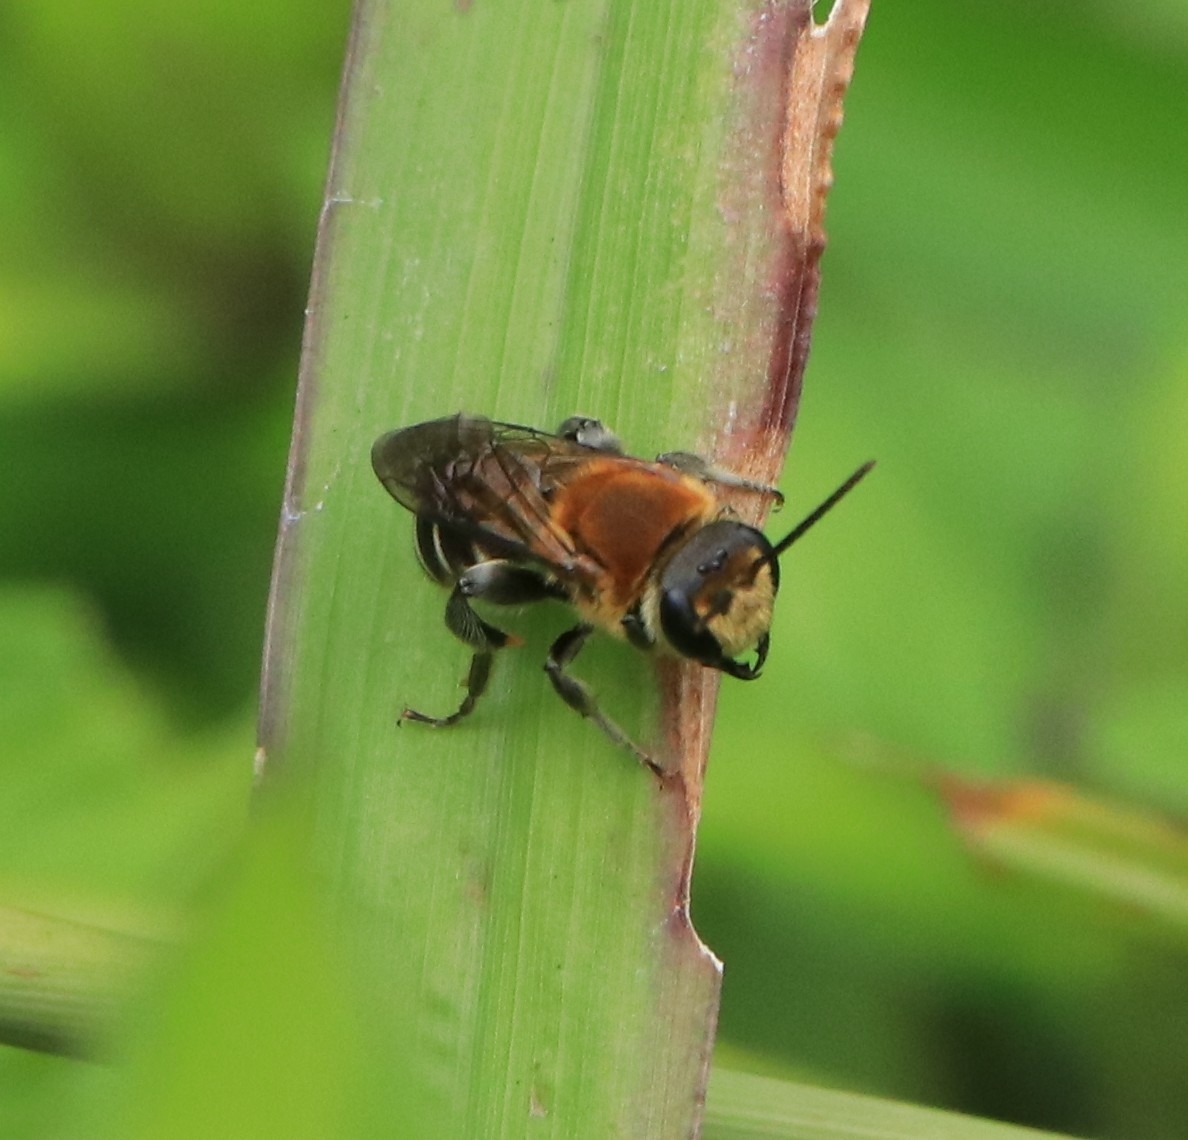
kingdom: Animalia
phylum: Arthropoda
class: Insecta
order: Hymenoptera
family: Halictidae
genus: Nomia
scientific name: Nomia thoracica
